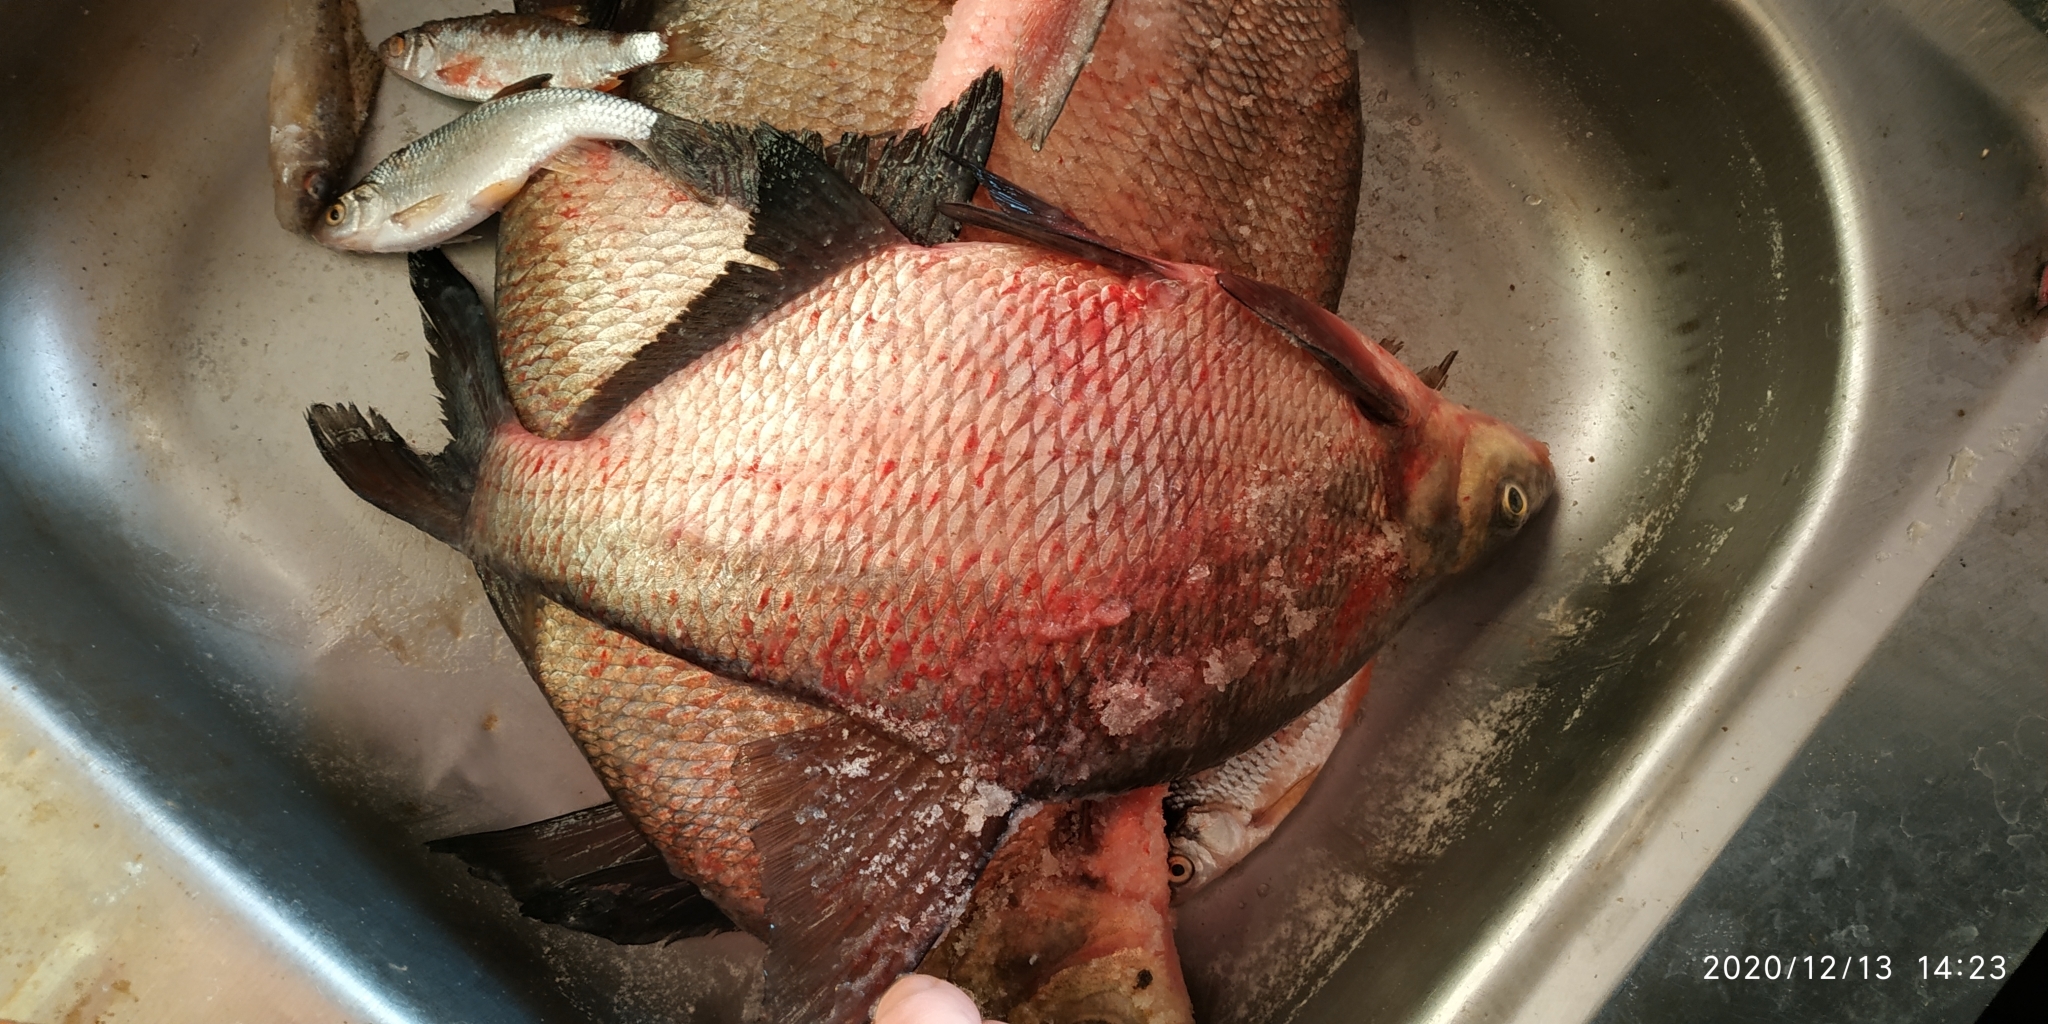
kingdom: Animalia
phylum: Chordata
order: Cypriniformes
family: Cyprinidae
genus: Abramis
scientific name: Abramis brama
